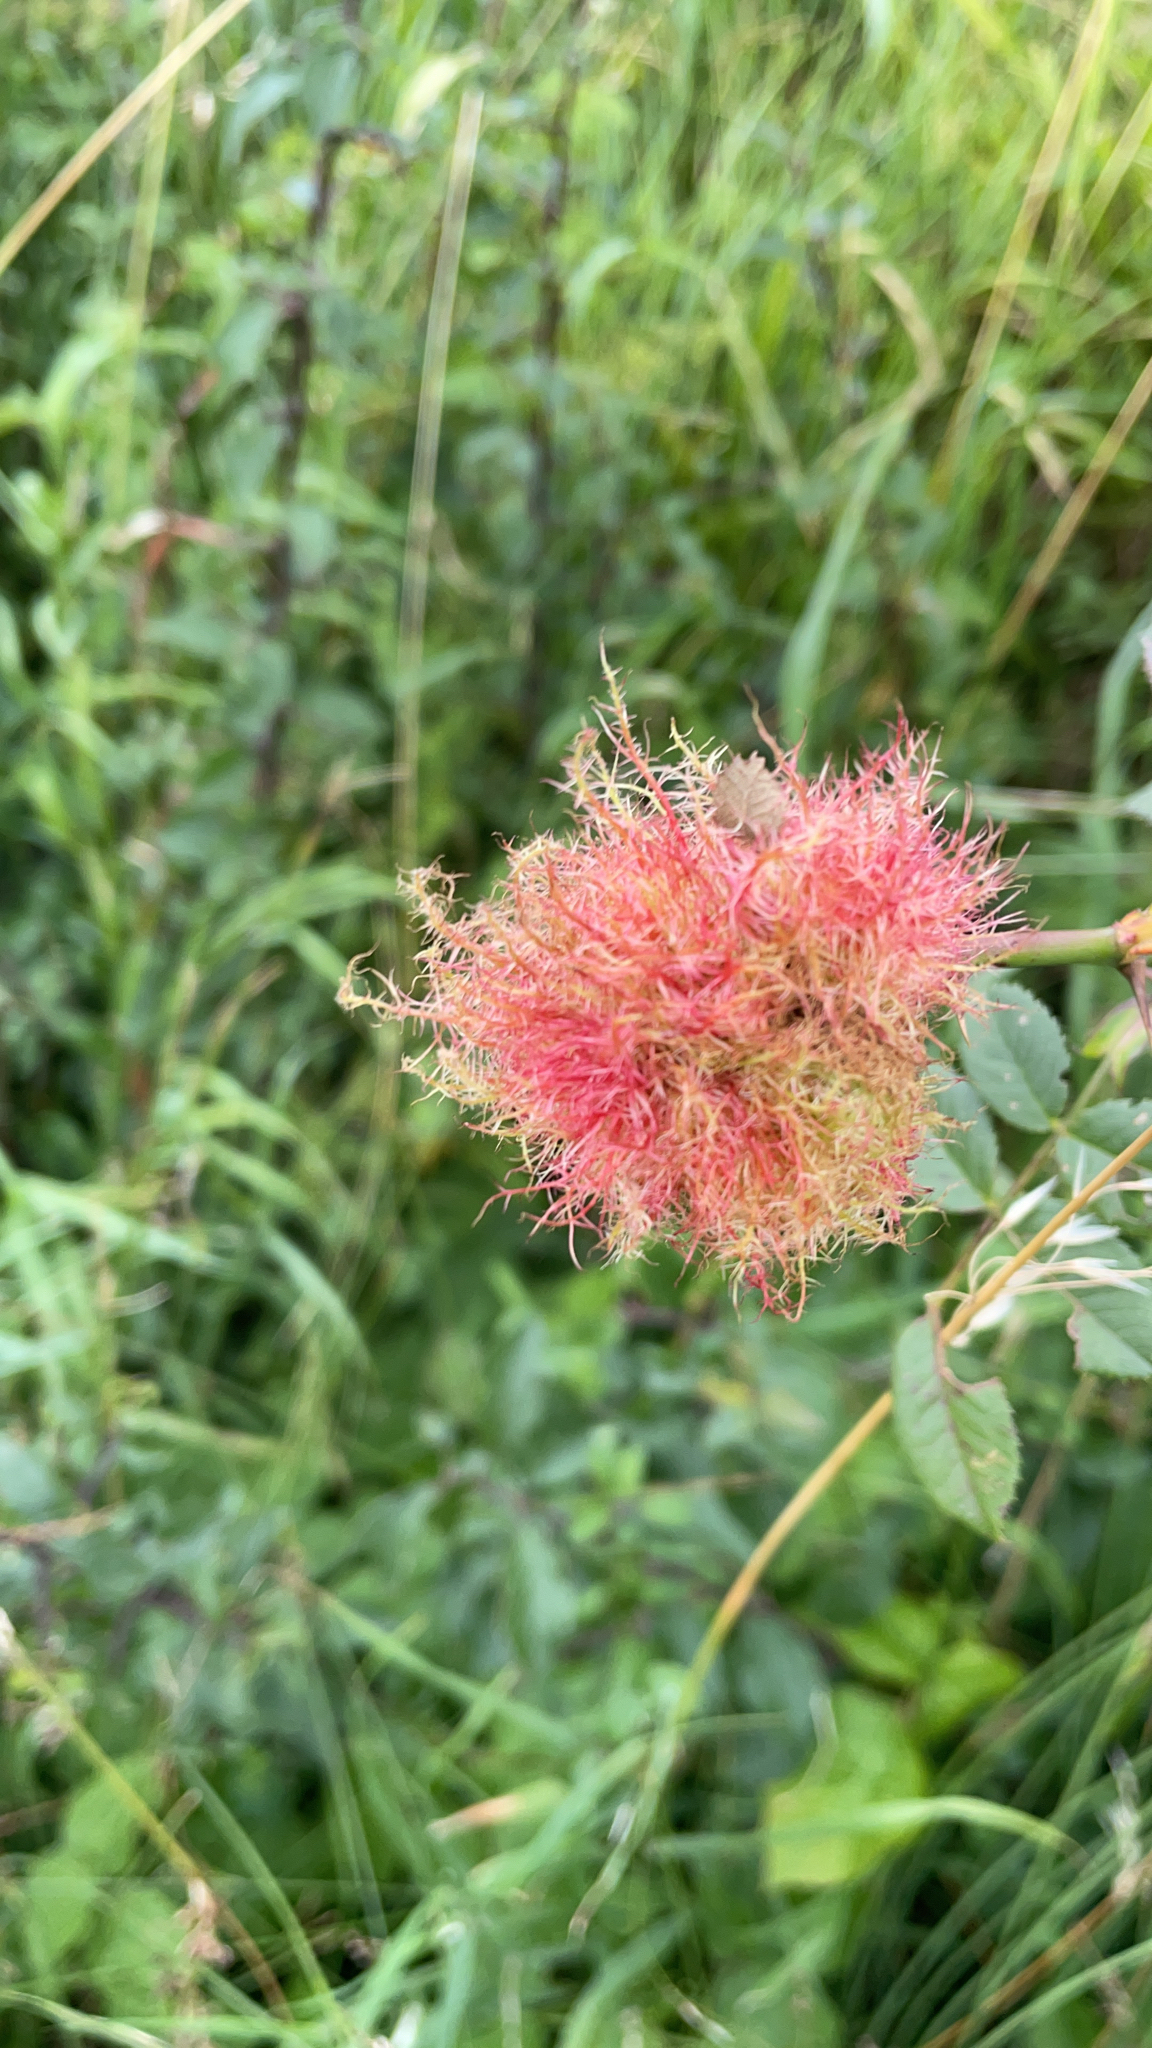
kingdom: Animalia
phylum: Arthropoda
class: Insecta
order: Hymenoptera
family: Cynipidae
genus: Diplolepis
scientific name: Diplolepis rosae
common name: Bedeguar gall
